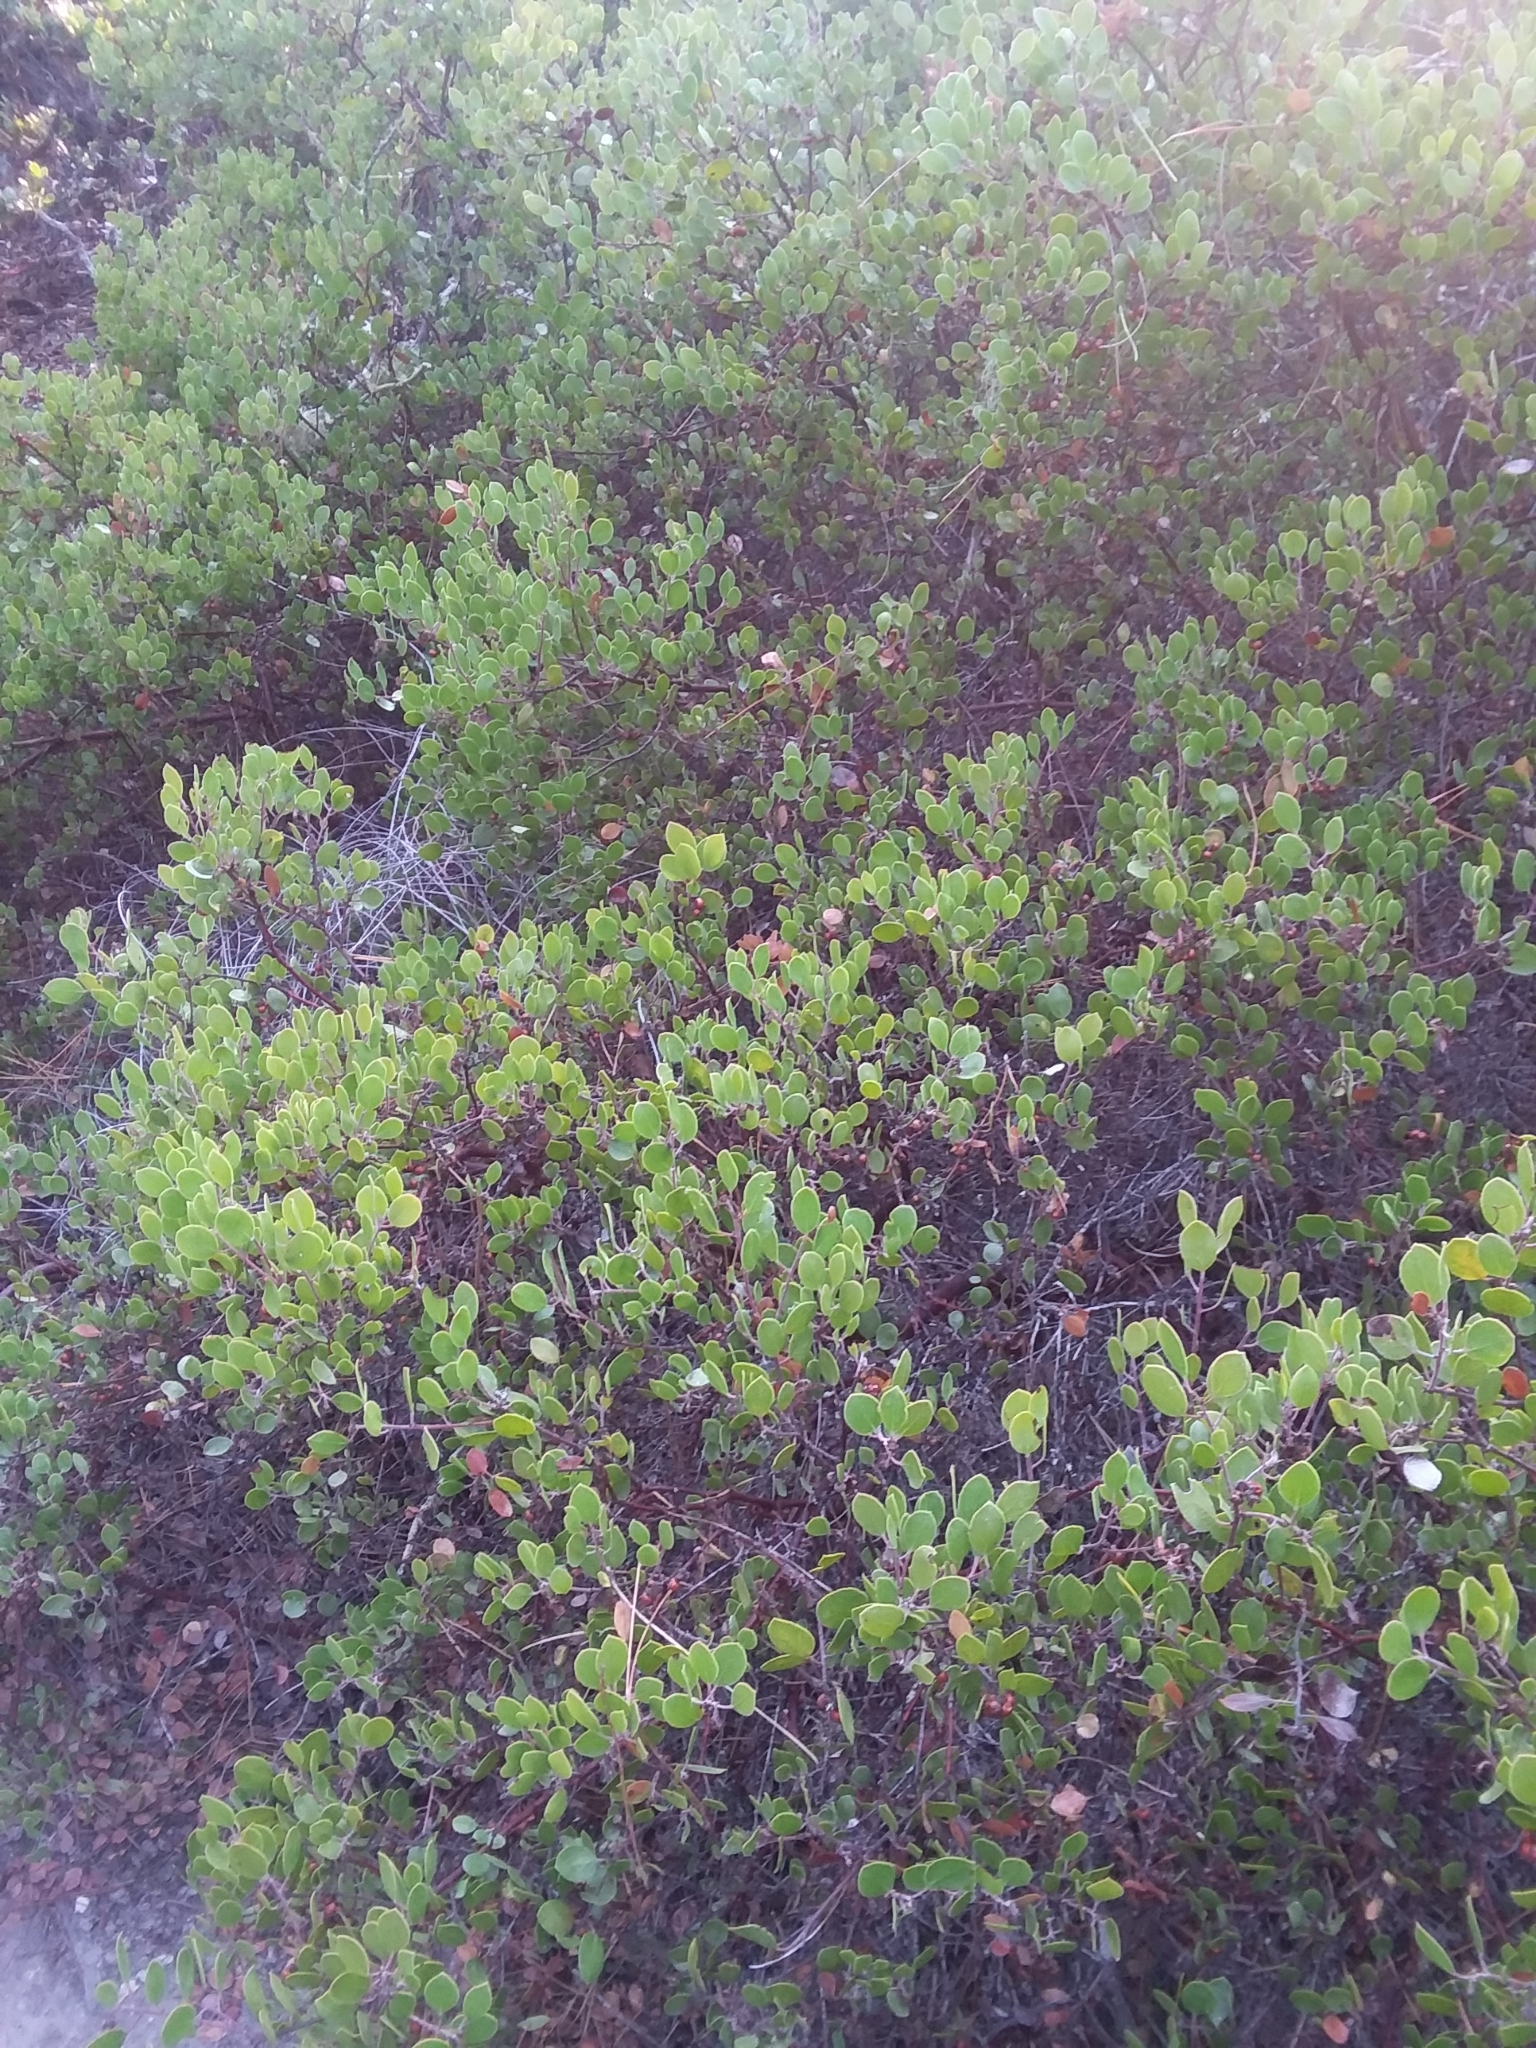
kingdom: Plantae
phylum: Tracheophyta
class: Magnoliopsida
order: Ericales
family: Ericaceae
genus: Arctostaphylos
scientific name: Arctostaphylos hookeri
